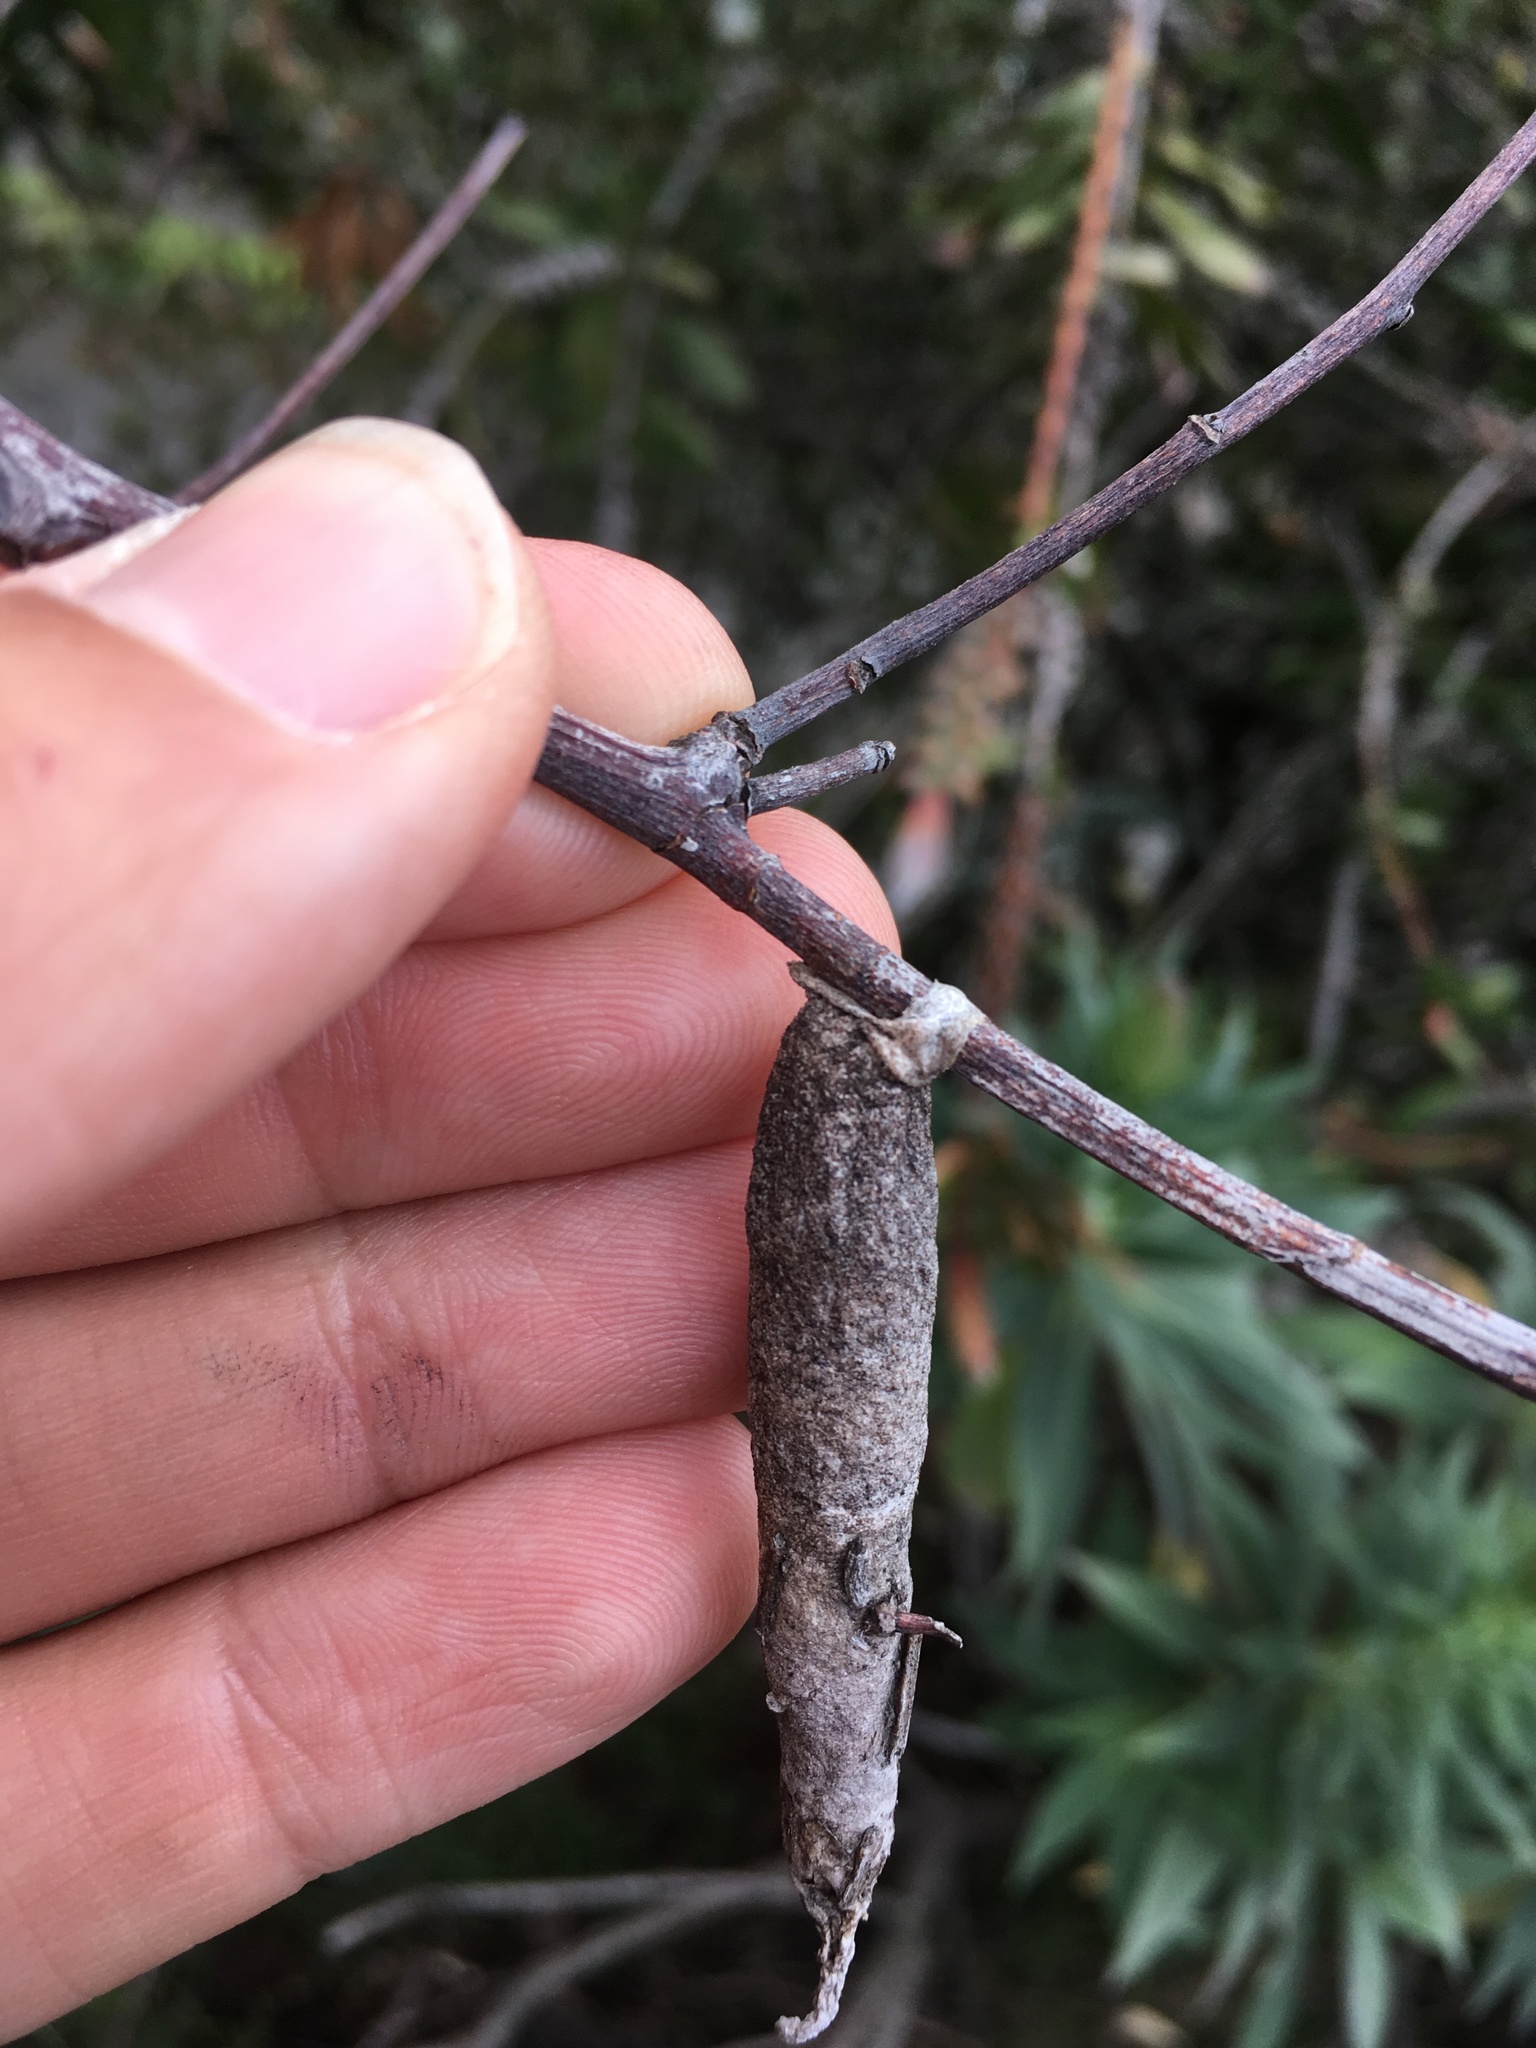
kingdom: Animalia
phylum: Arthropoda
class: Insecta
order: Lepidoptera
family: Psychidae
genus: Liothula
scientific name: Liothula omnivora
